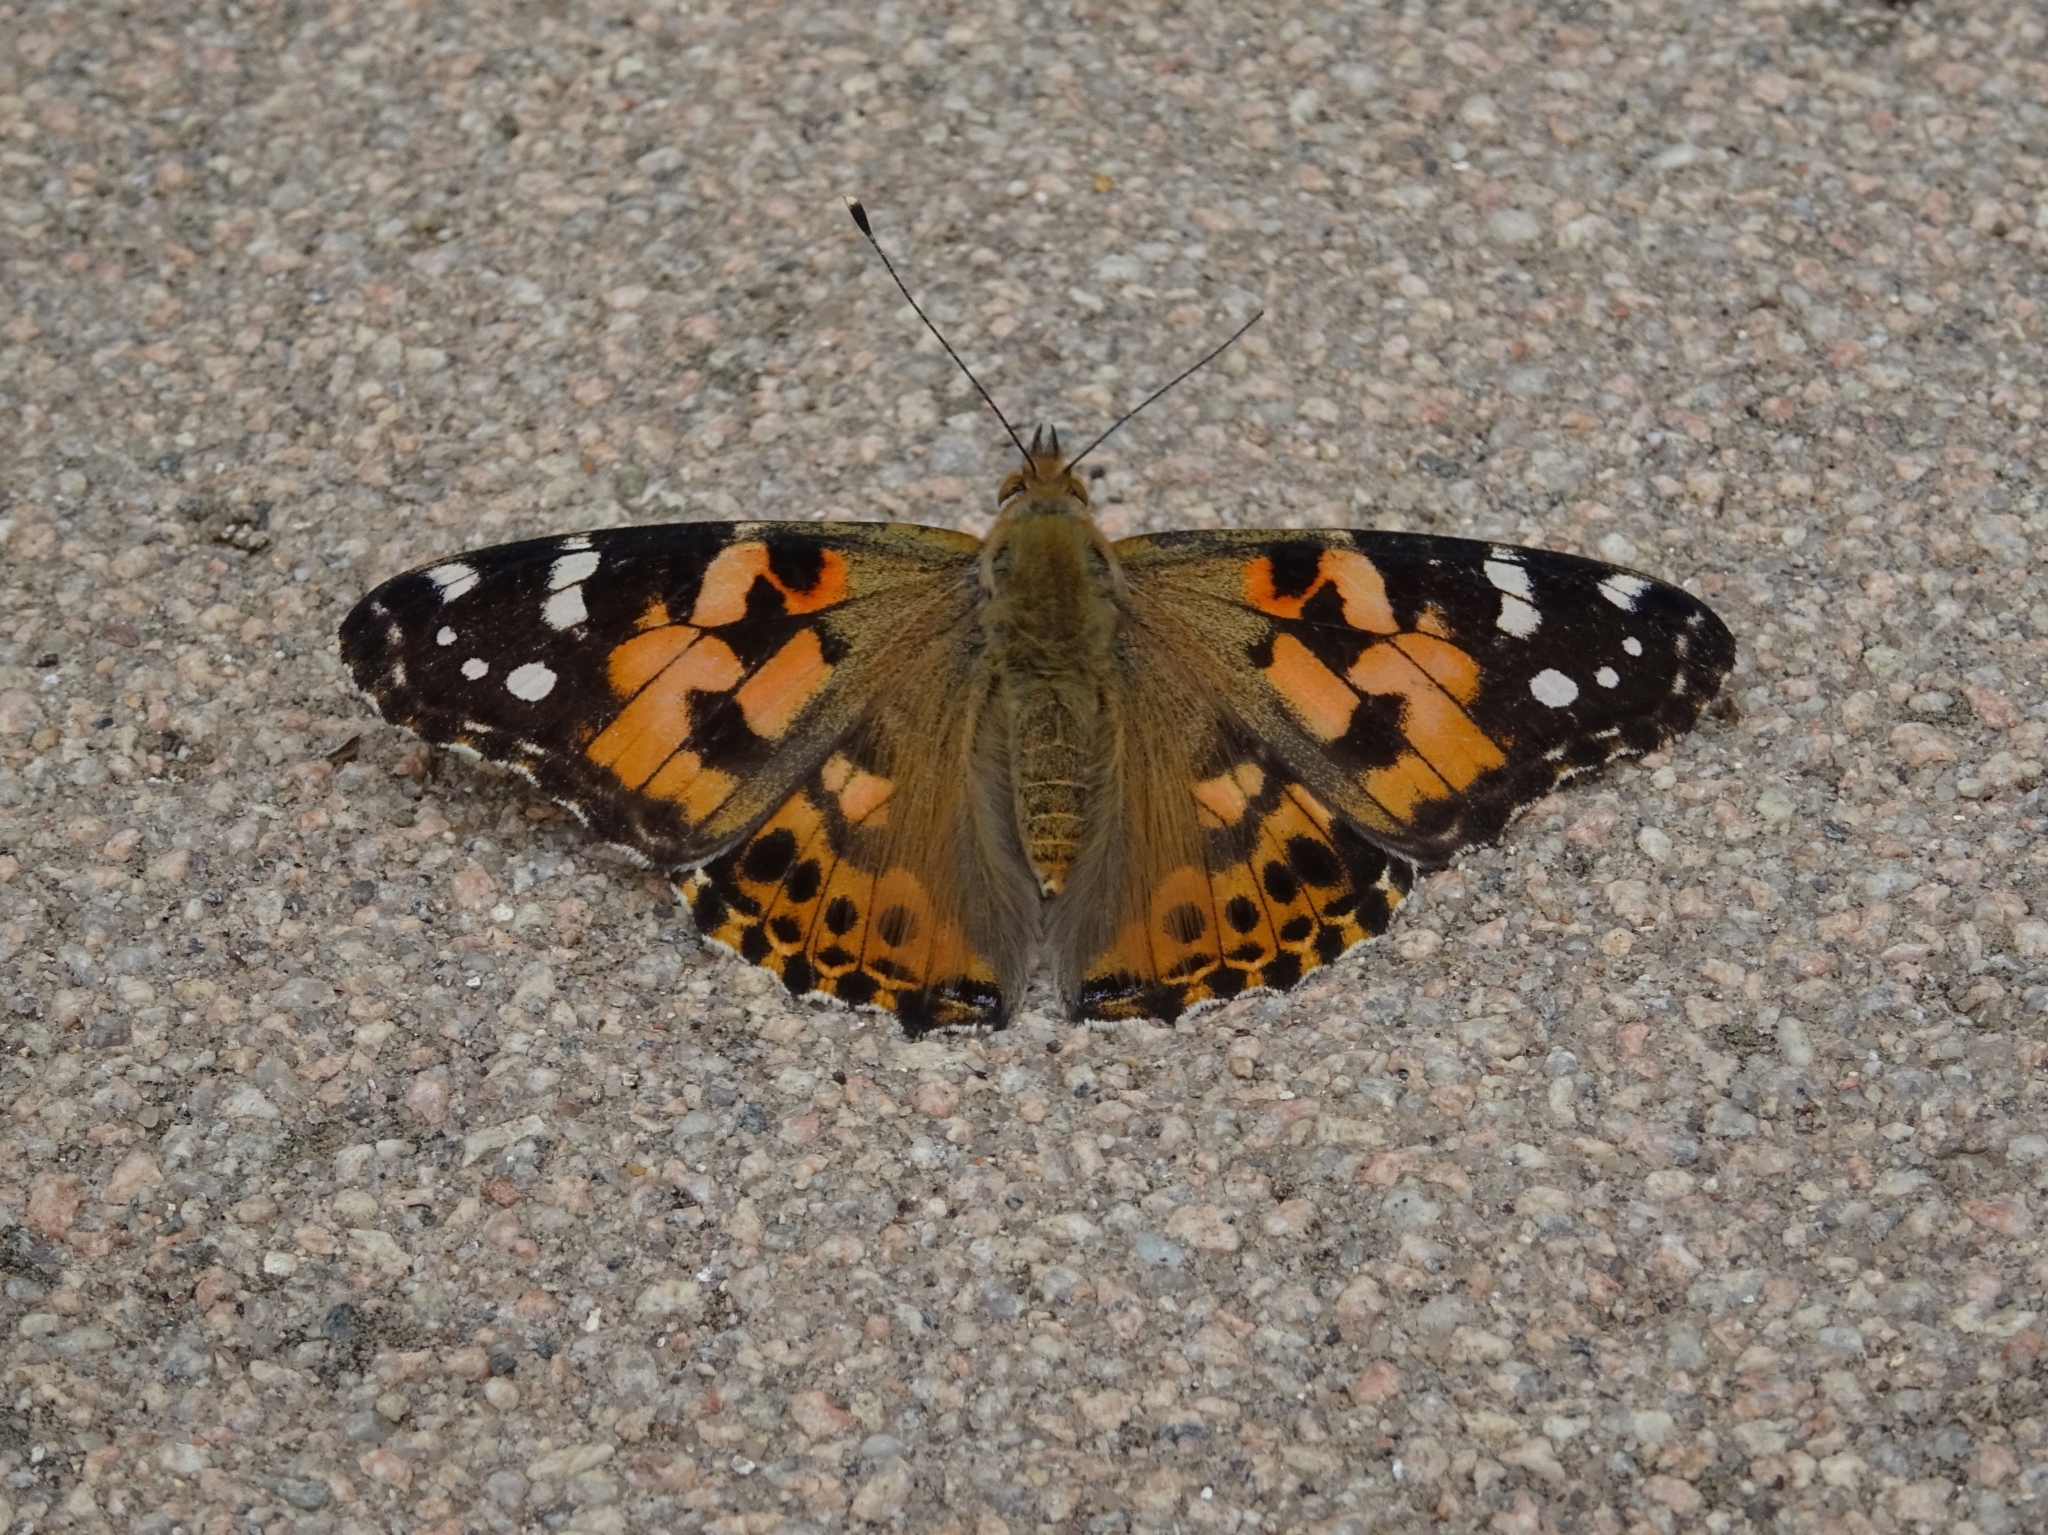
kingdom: Animalia
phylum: Arthropoda
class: Insecta
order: Lepidoptera
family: Nymphalidae
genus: Vanessa
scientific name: Vanessa cardui
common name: Painted lady
